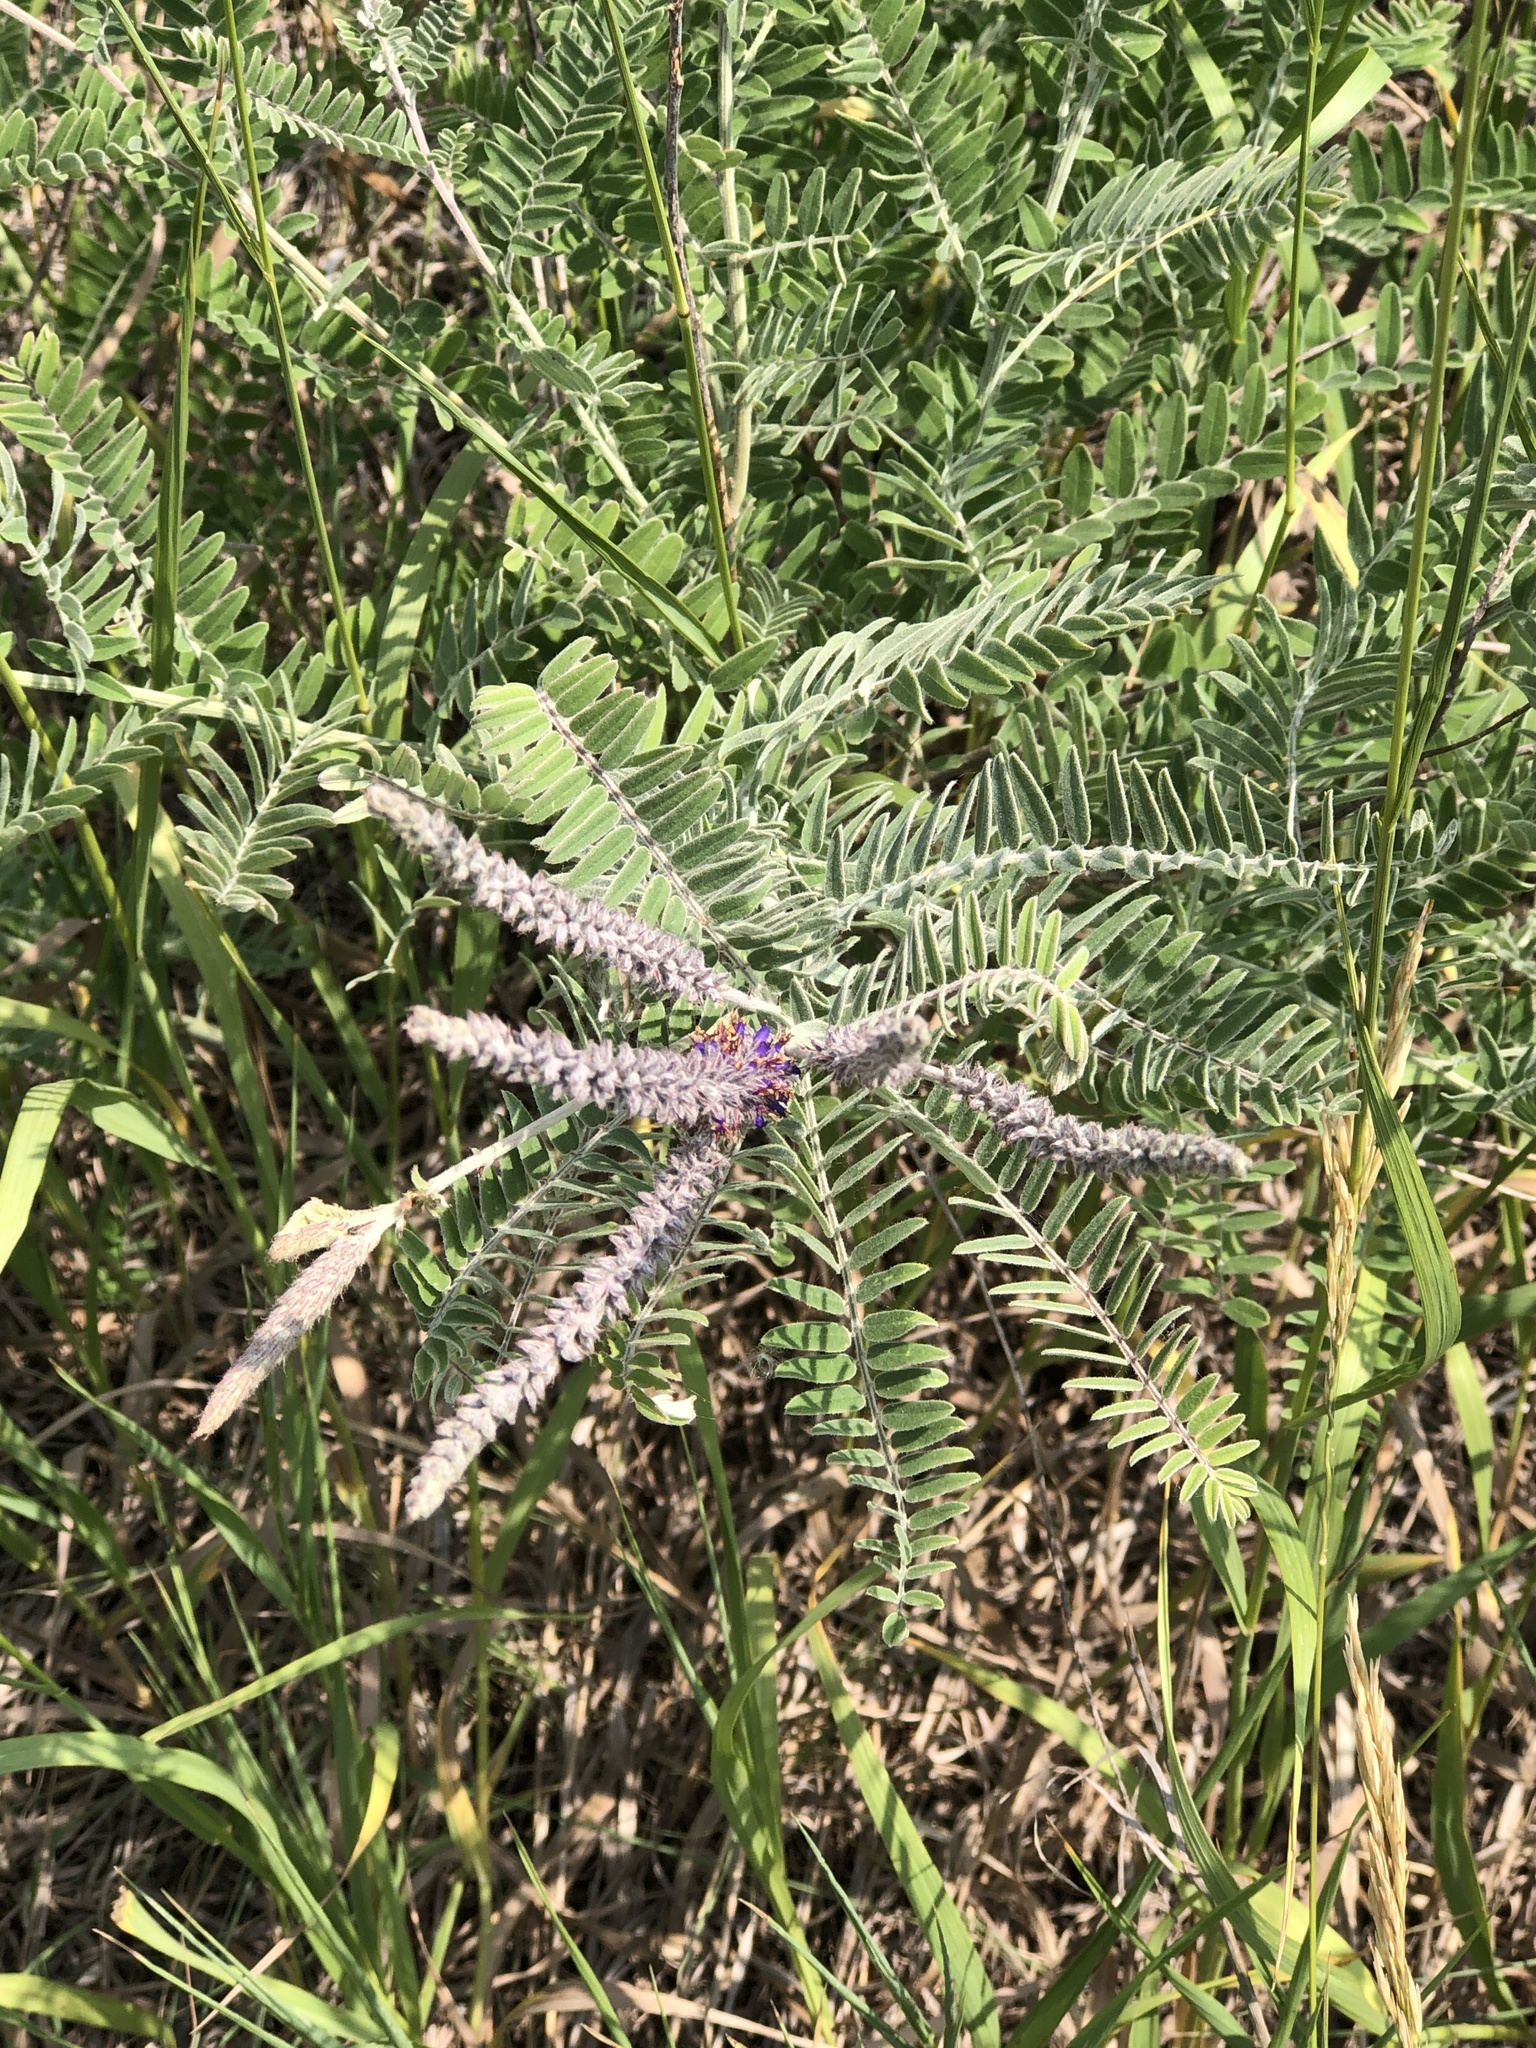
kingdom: Plantae
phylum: Tracheophyta
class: Magnoliopsida
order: Fabales
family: Fabaceae
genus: Amorpha
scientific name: Amorpha canescens
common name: Leadplant
